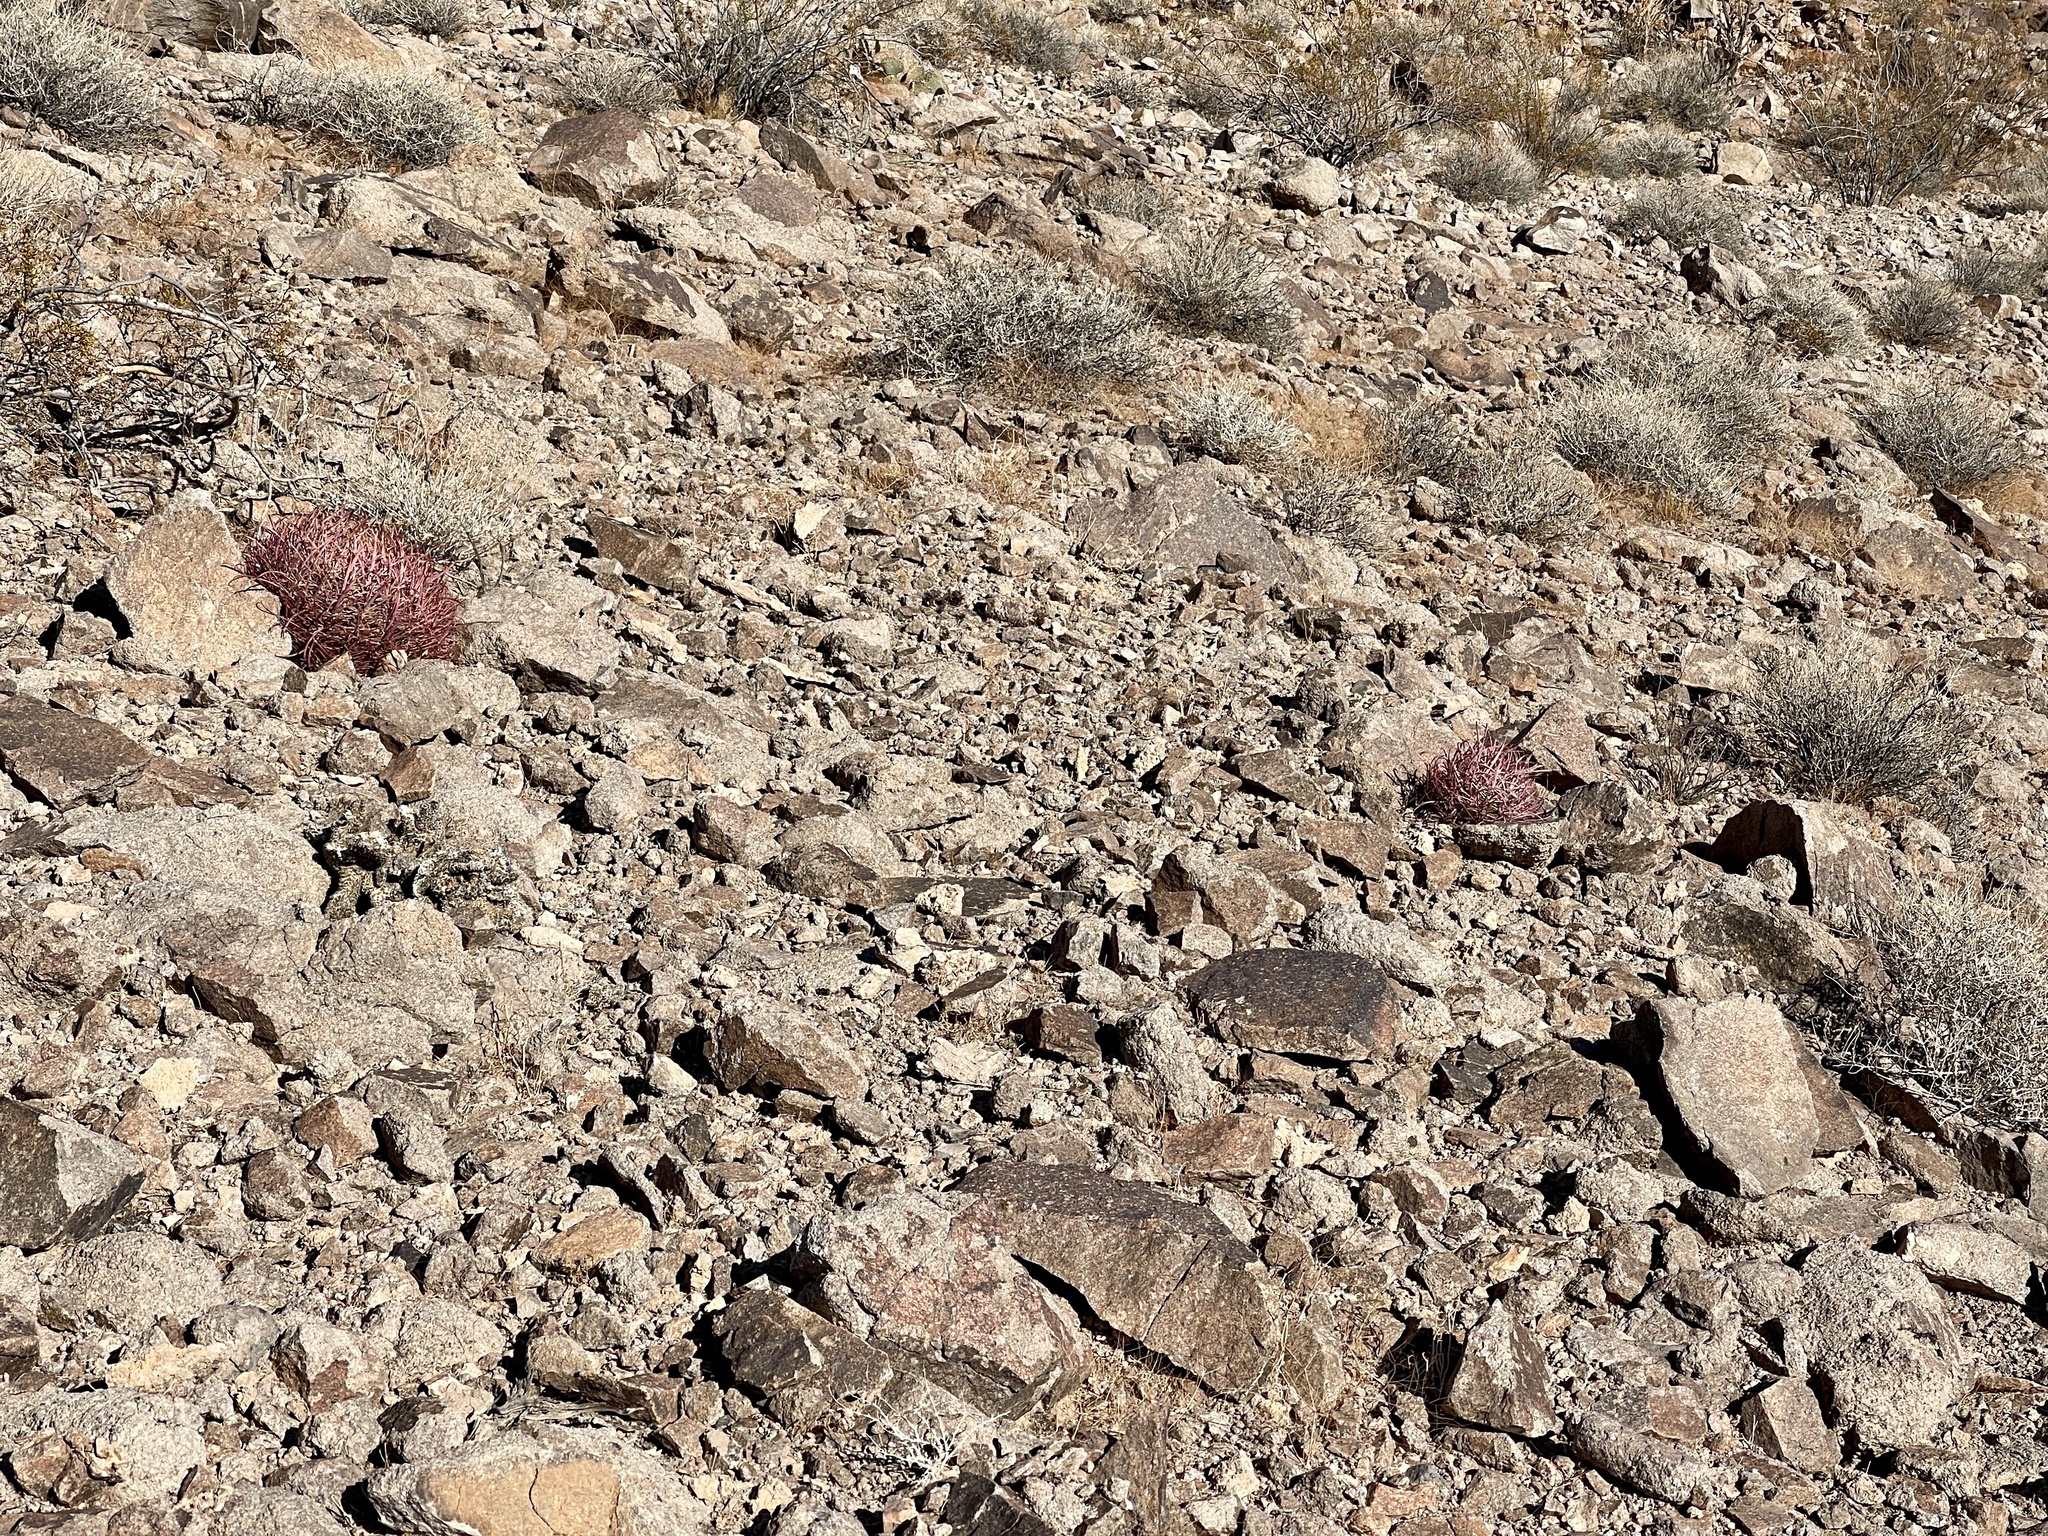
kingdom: Plantae
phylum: Tracheophyta
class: Magnoliopsida
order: Caryophyllales
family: Cactaceae
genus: Ferocactus
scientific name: Ferocactus cylindraceus
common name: California barrel cactus
